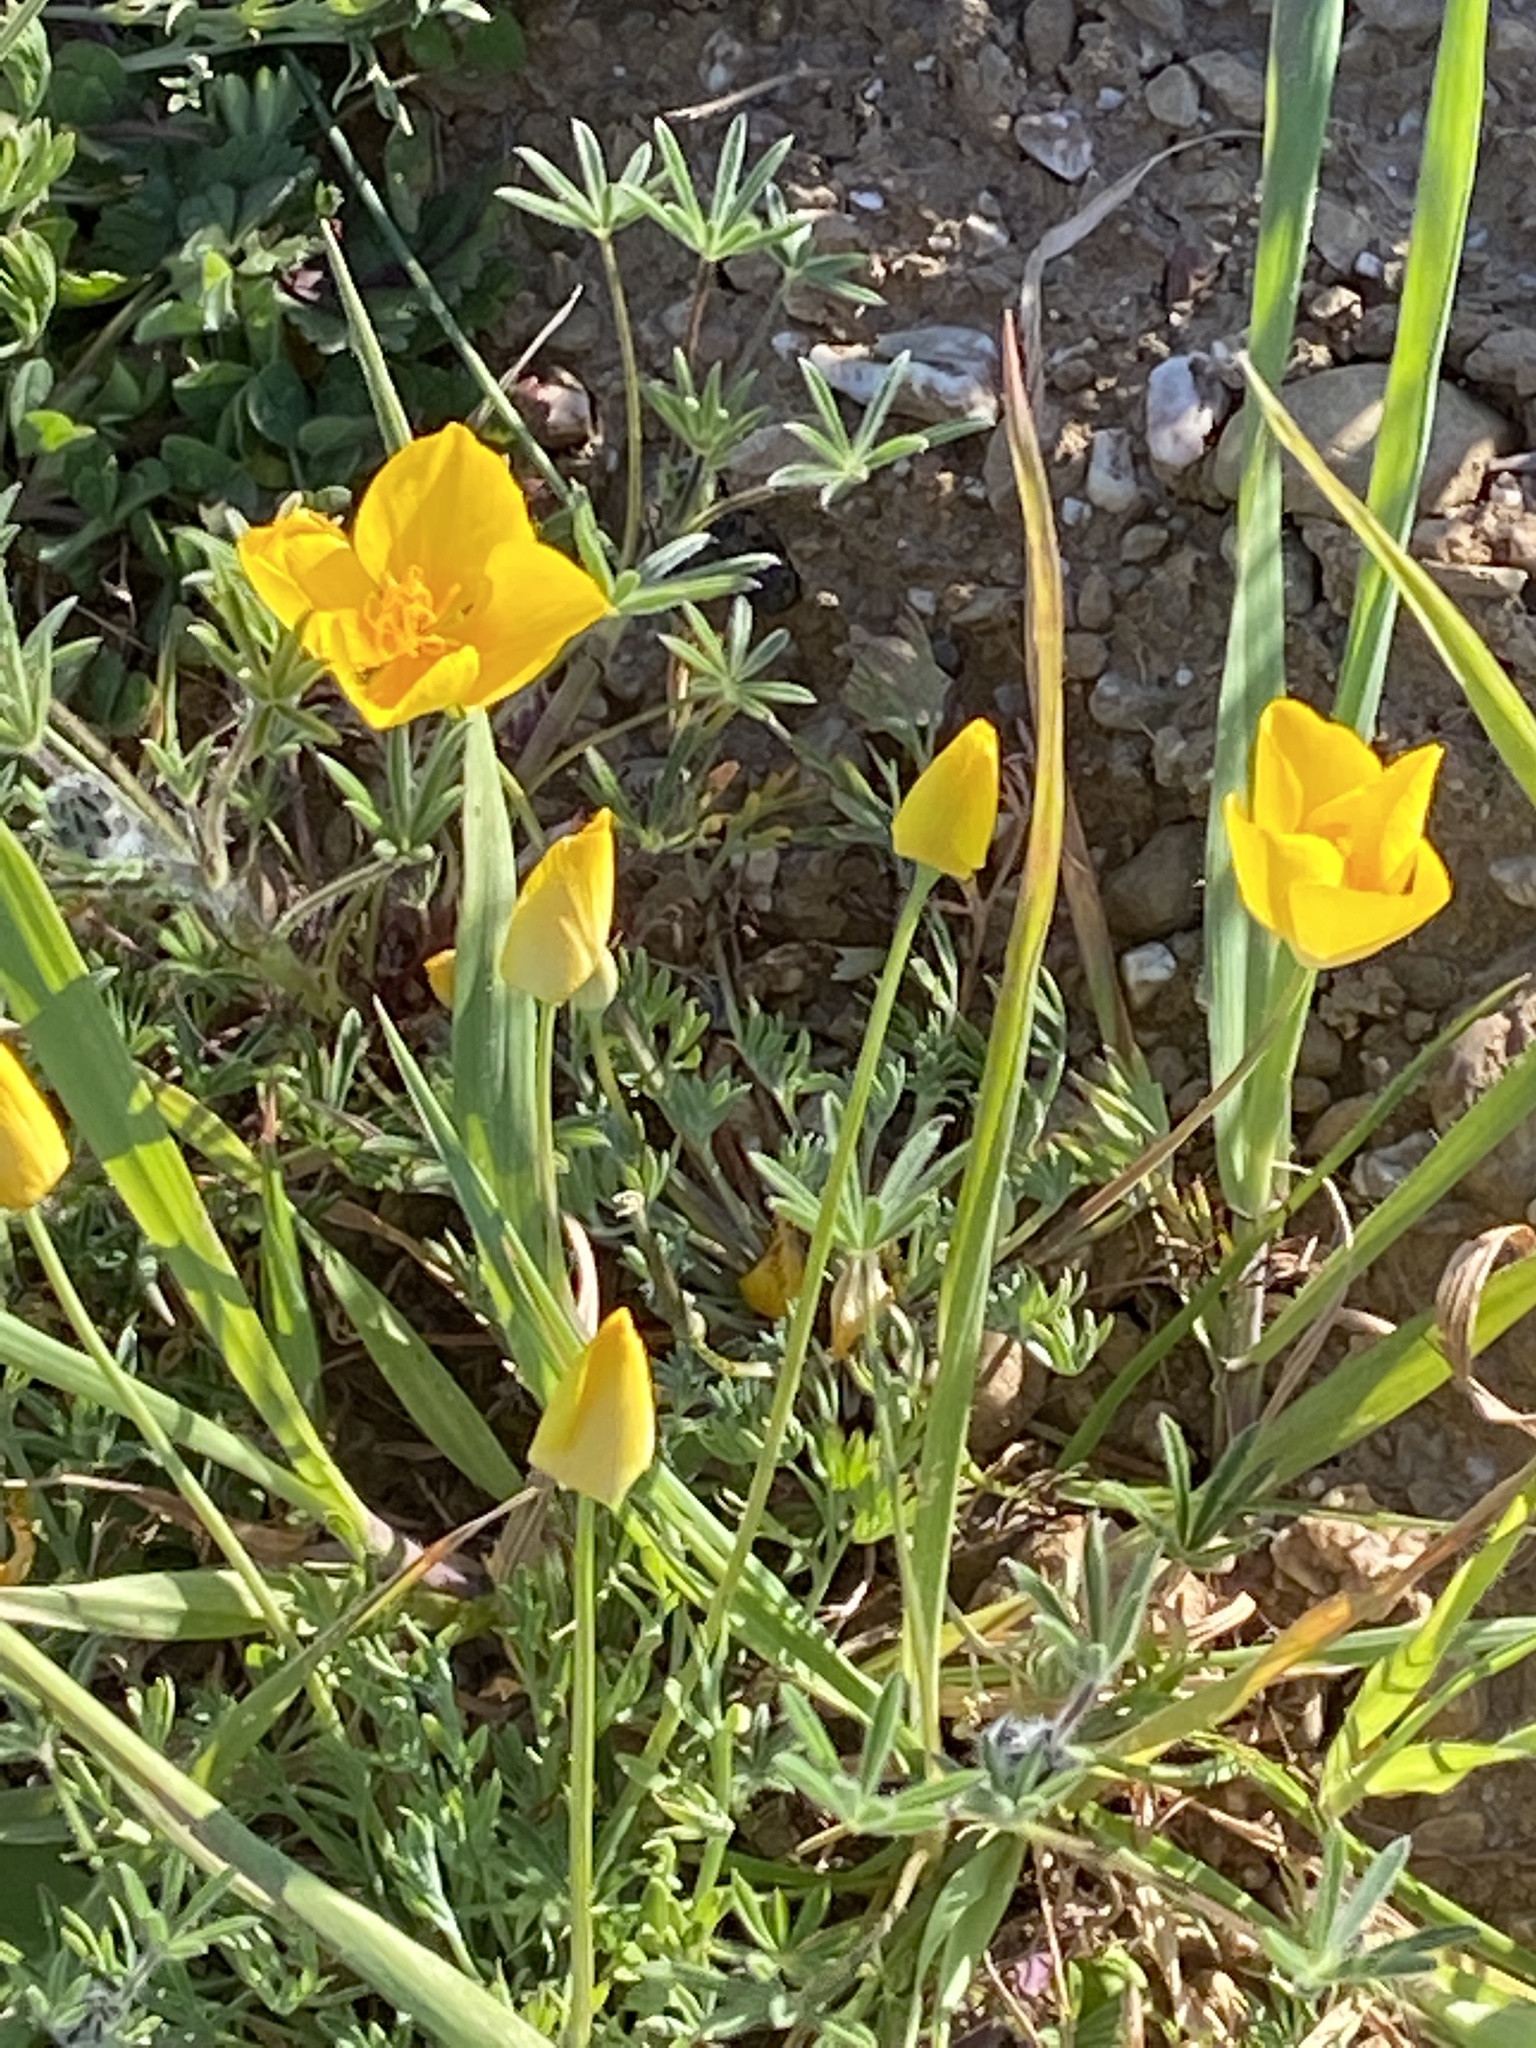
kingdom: Plantae
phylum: Tracheophyta
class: Magnoliopsida
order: Ranunculales
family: Papaveraceae
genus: Eschscholzia
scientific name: Eschscholzia lobbii
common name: Frying-pans
